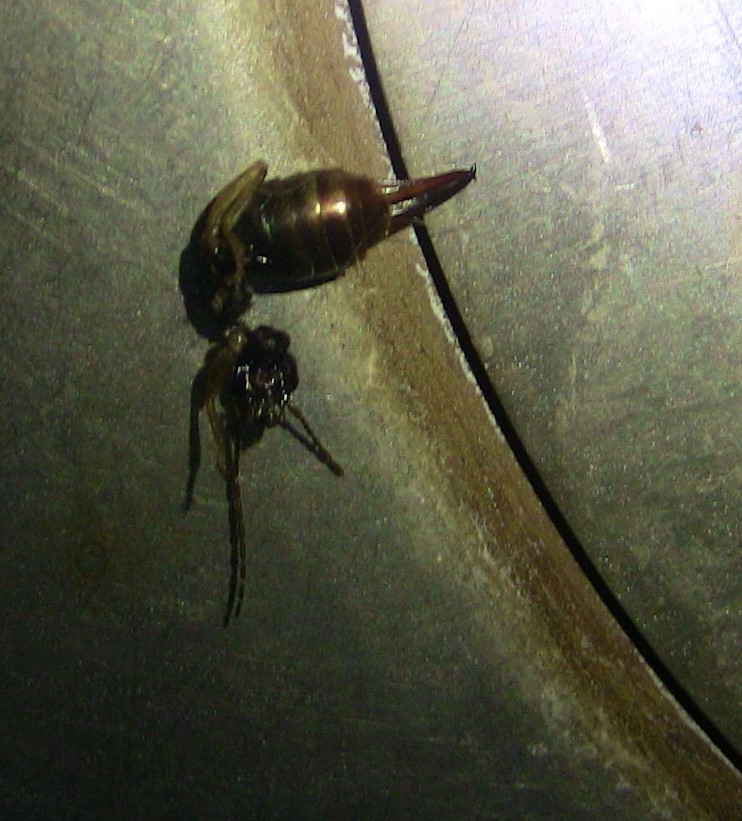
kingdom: Animalia
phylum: Arthropoda
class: Insecta
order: Dermaptera
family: Forficulidae
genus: Forficula
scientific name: Forficula
